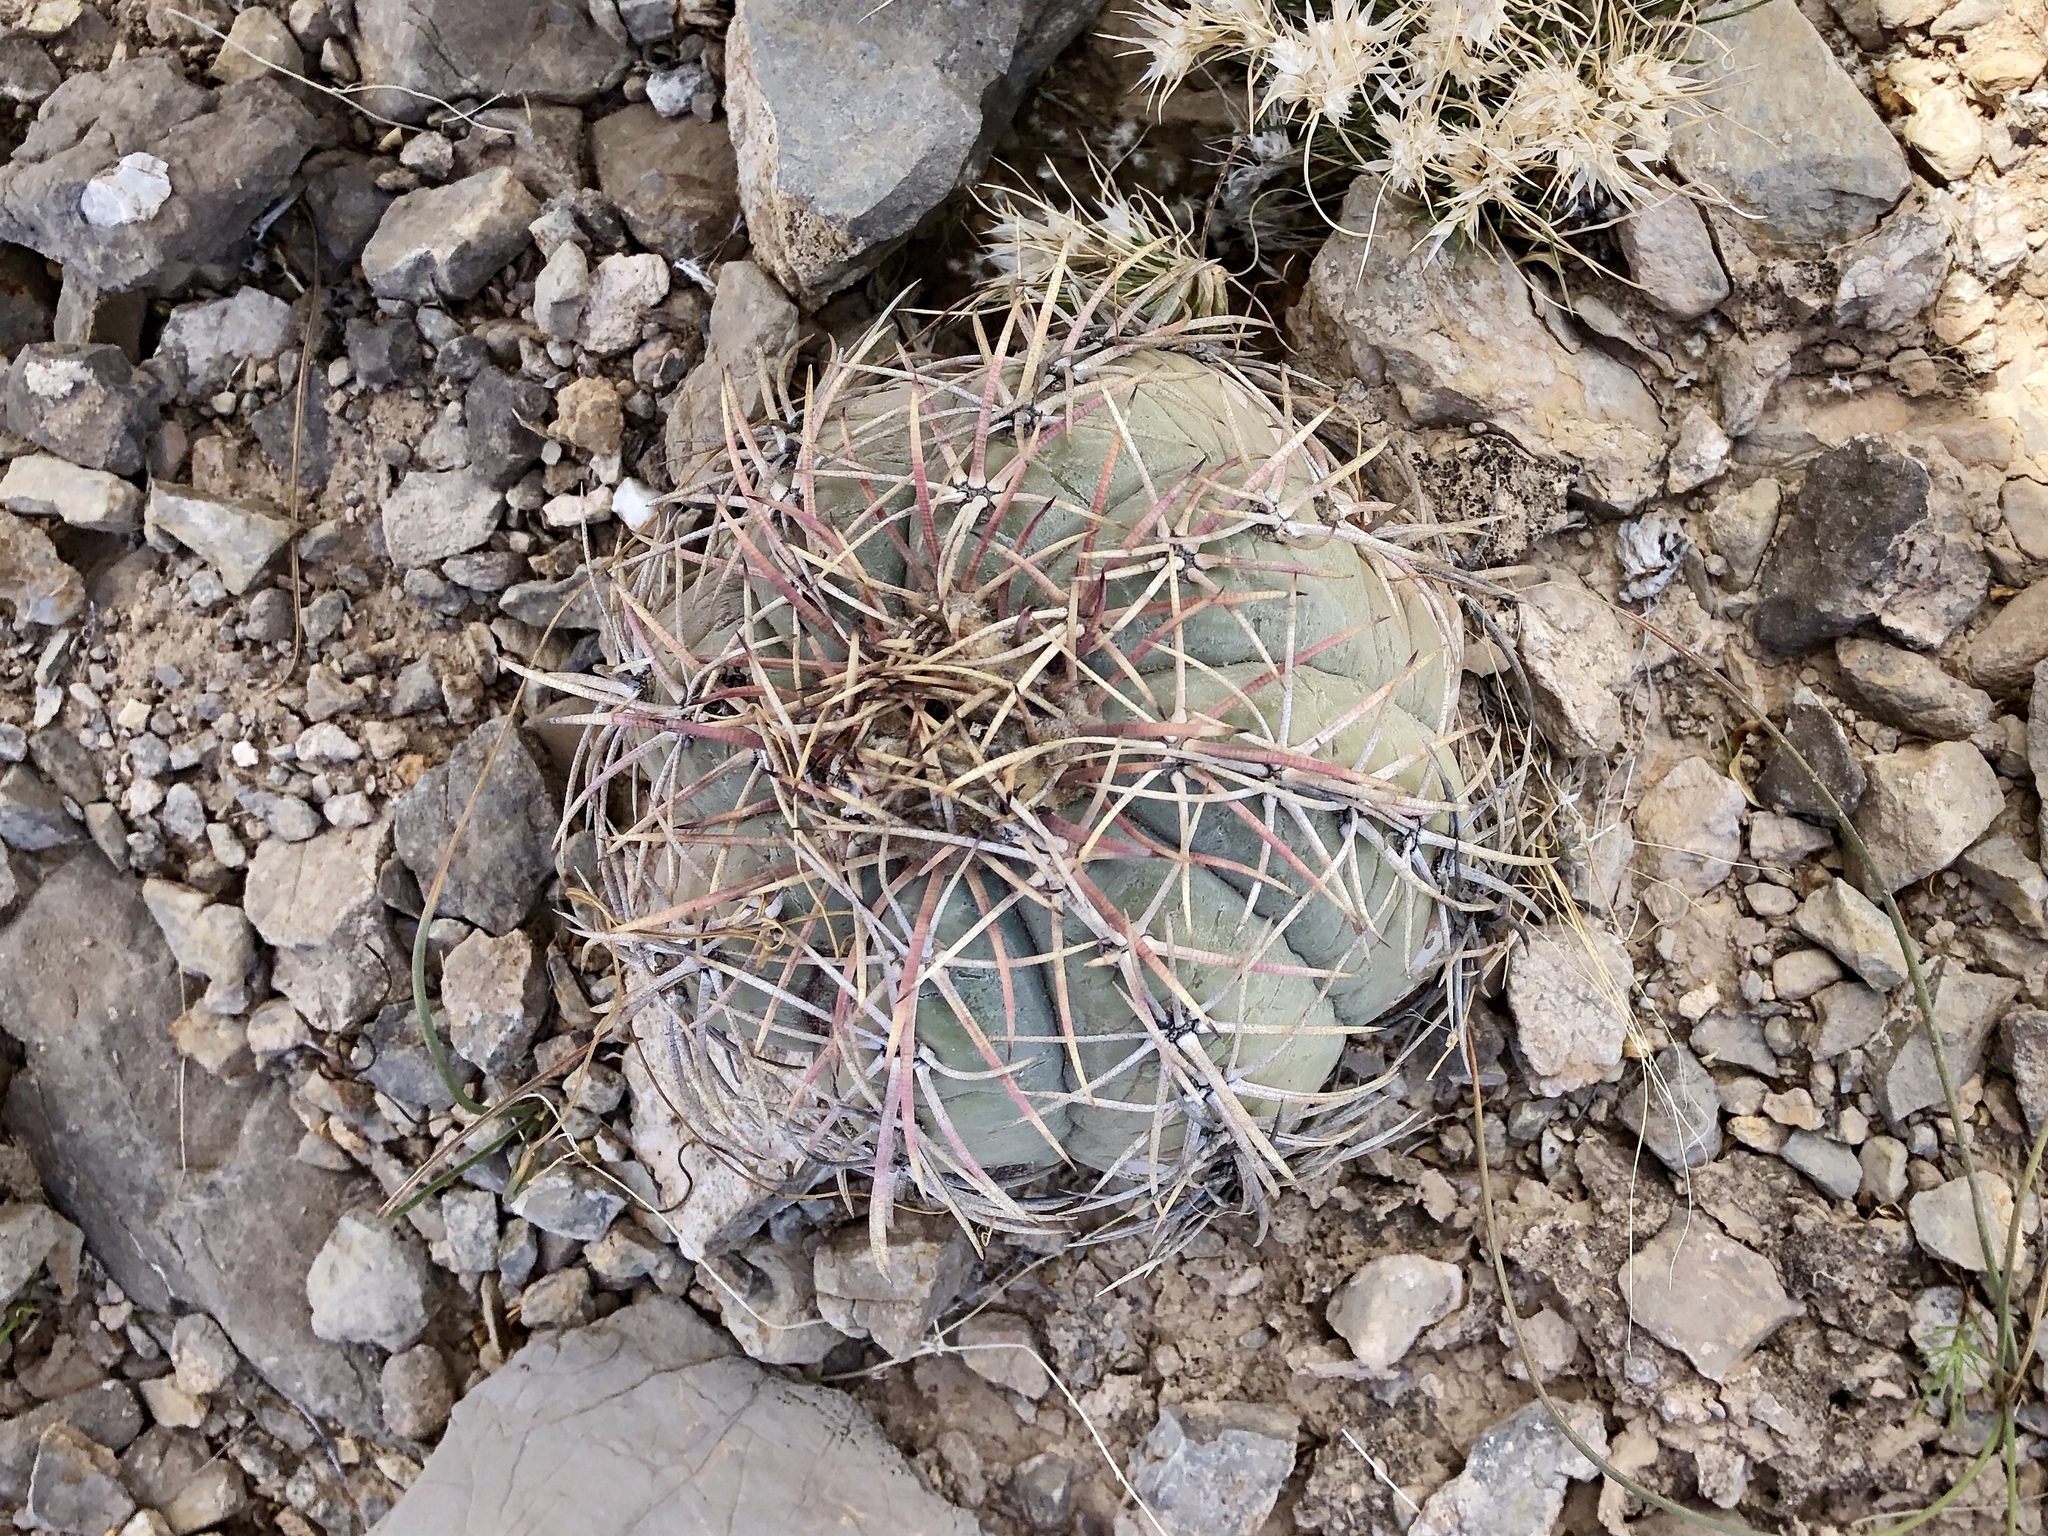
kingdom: Plantae
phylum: Tracheophyta
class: Magnoliopsida
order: Caryophyllales
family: Cactaceae
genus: Echinocactus
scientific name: Echinocactus horizonthalonius
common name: Devilshead
